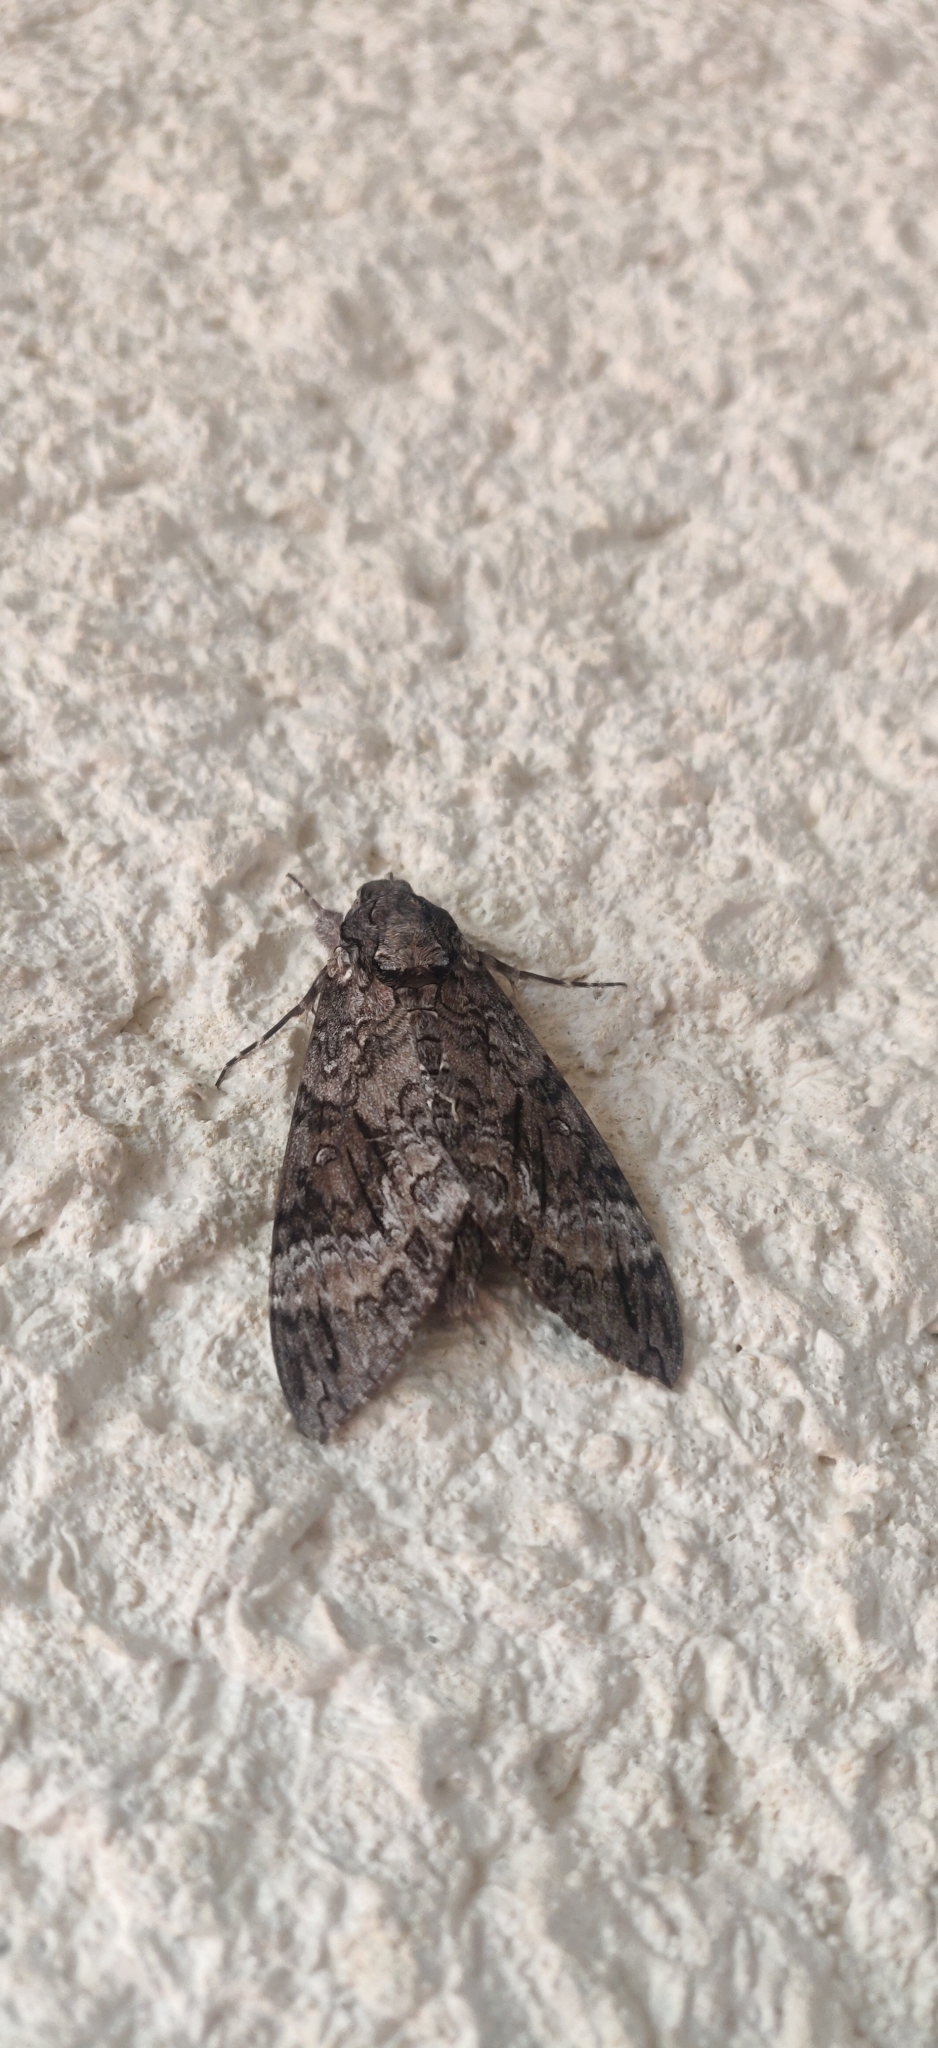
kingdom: Animalia
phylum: Arthropoda
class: Insecta
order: Lepidoptera
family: Sphingidae
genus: Agrius
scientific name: Agrius cingulata
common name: Pink-spotted hawkmoth
